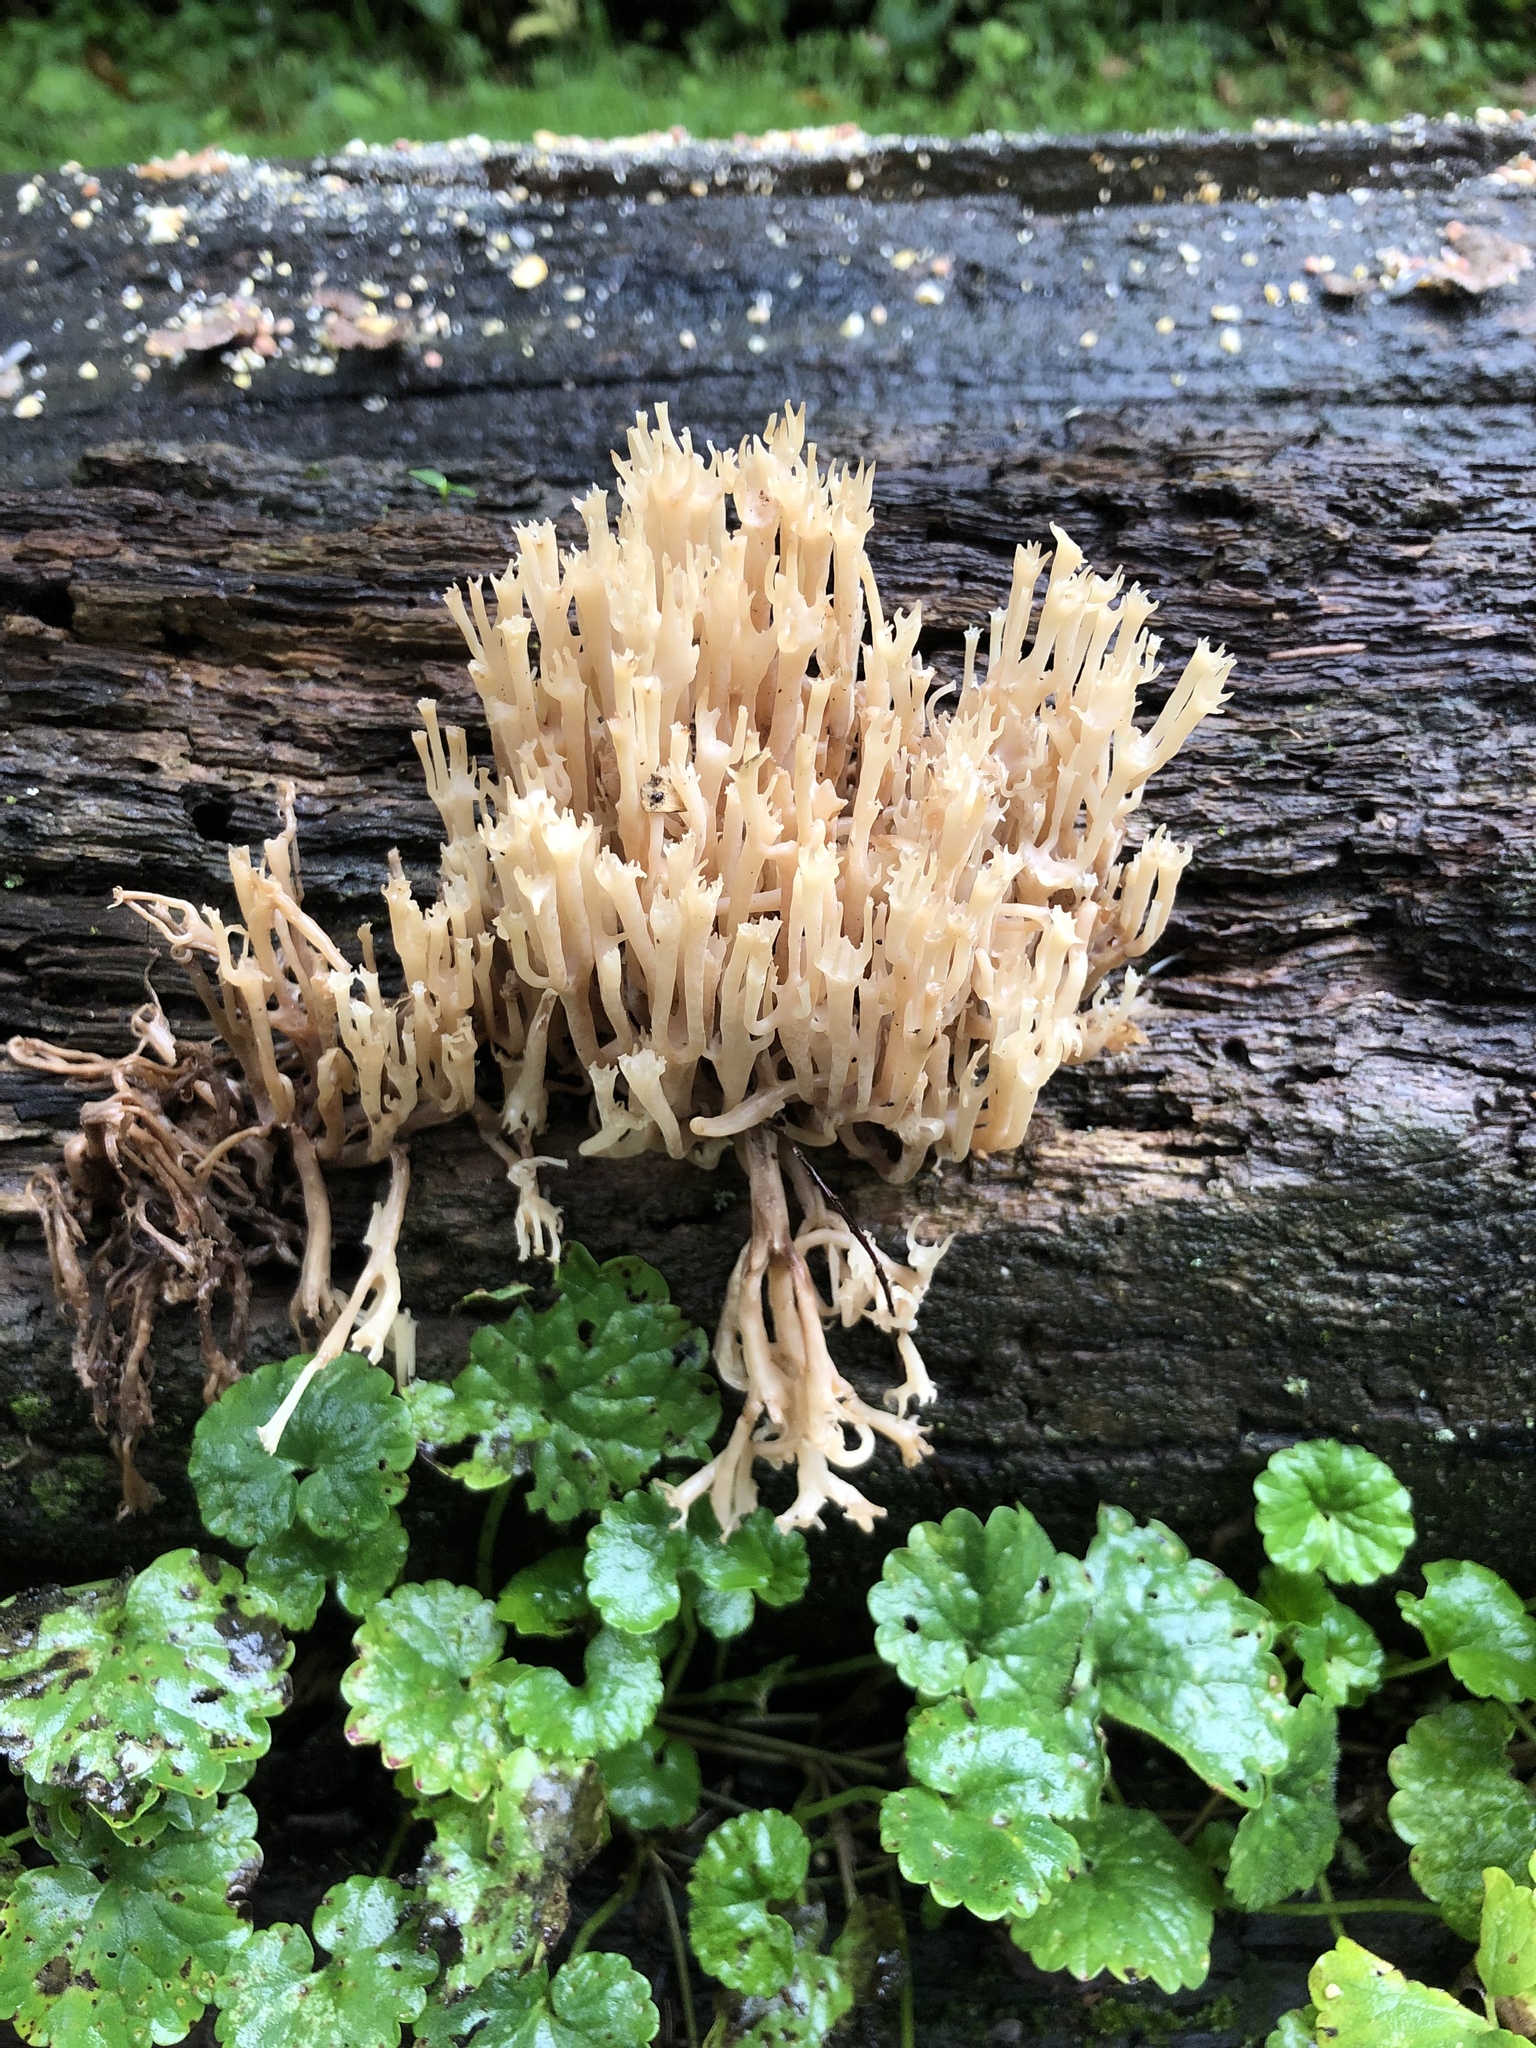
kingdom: Fungi
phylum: Basidiomycota
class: Agaricomycetes
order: Russulales
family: Auriscalpiaceae
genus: Artomyces
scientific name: Artomyces pyxidatus
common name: Crown-tipped coral fungus
